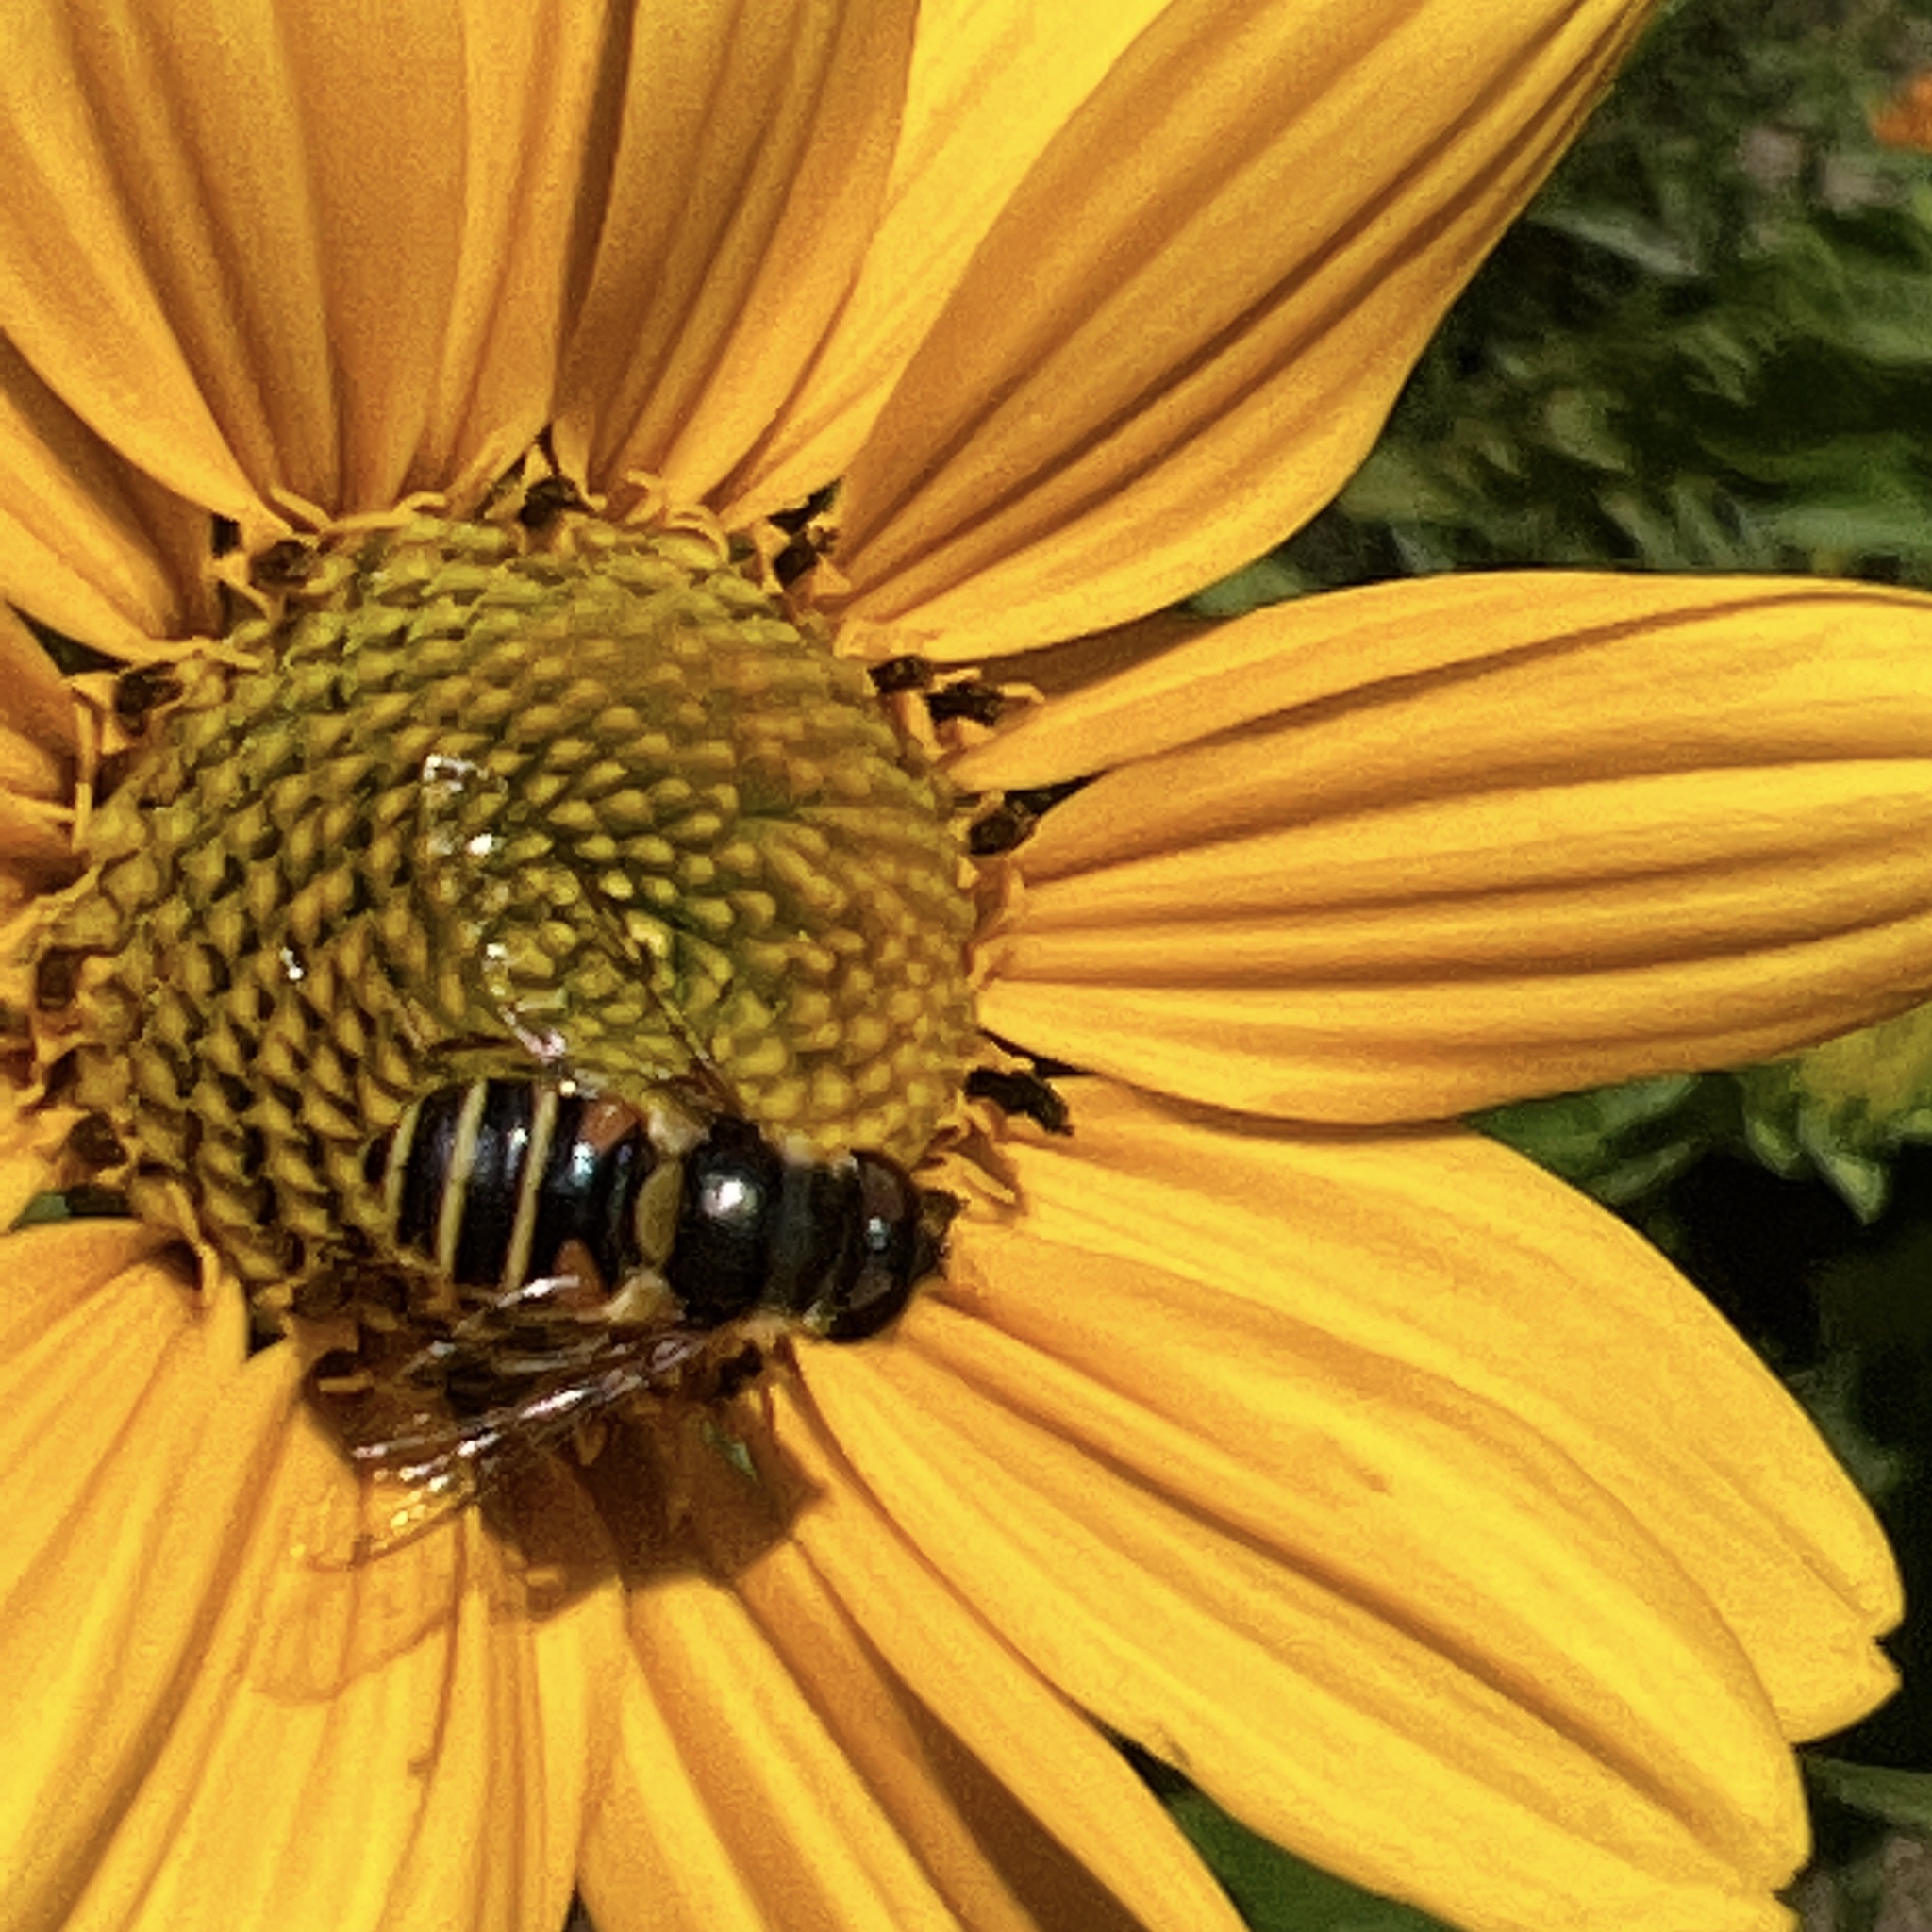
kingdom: Animalia
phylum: Arthropoda
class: Insecta
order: Diptera
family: Syrphidae
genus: Eristalis
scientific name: Eristalis transversa
